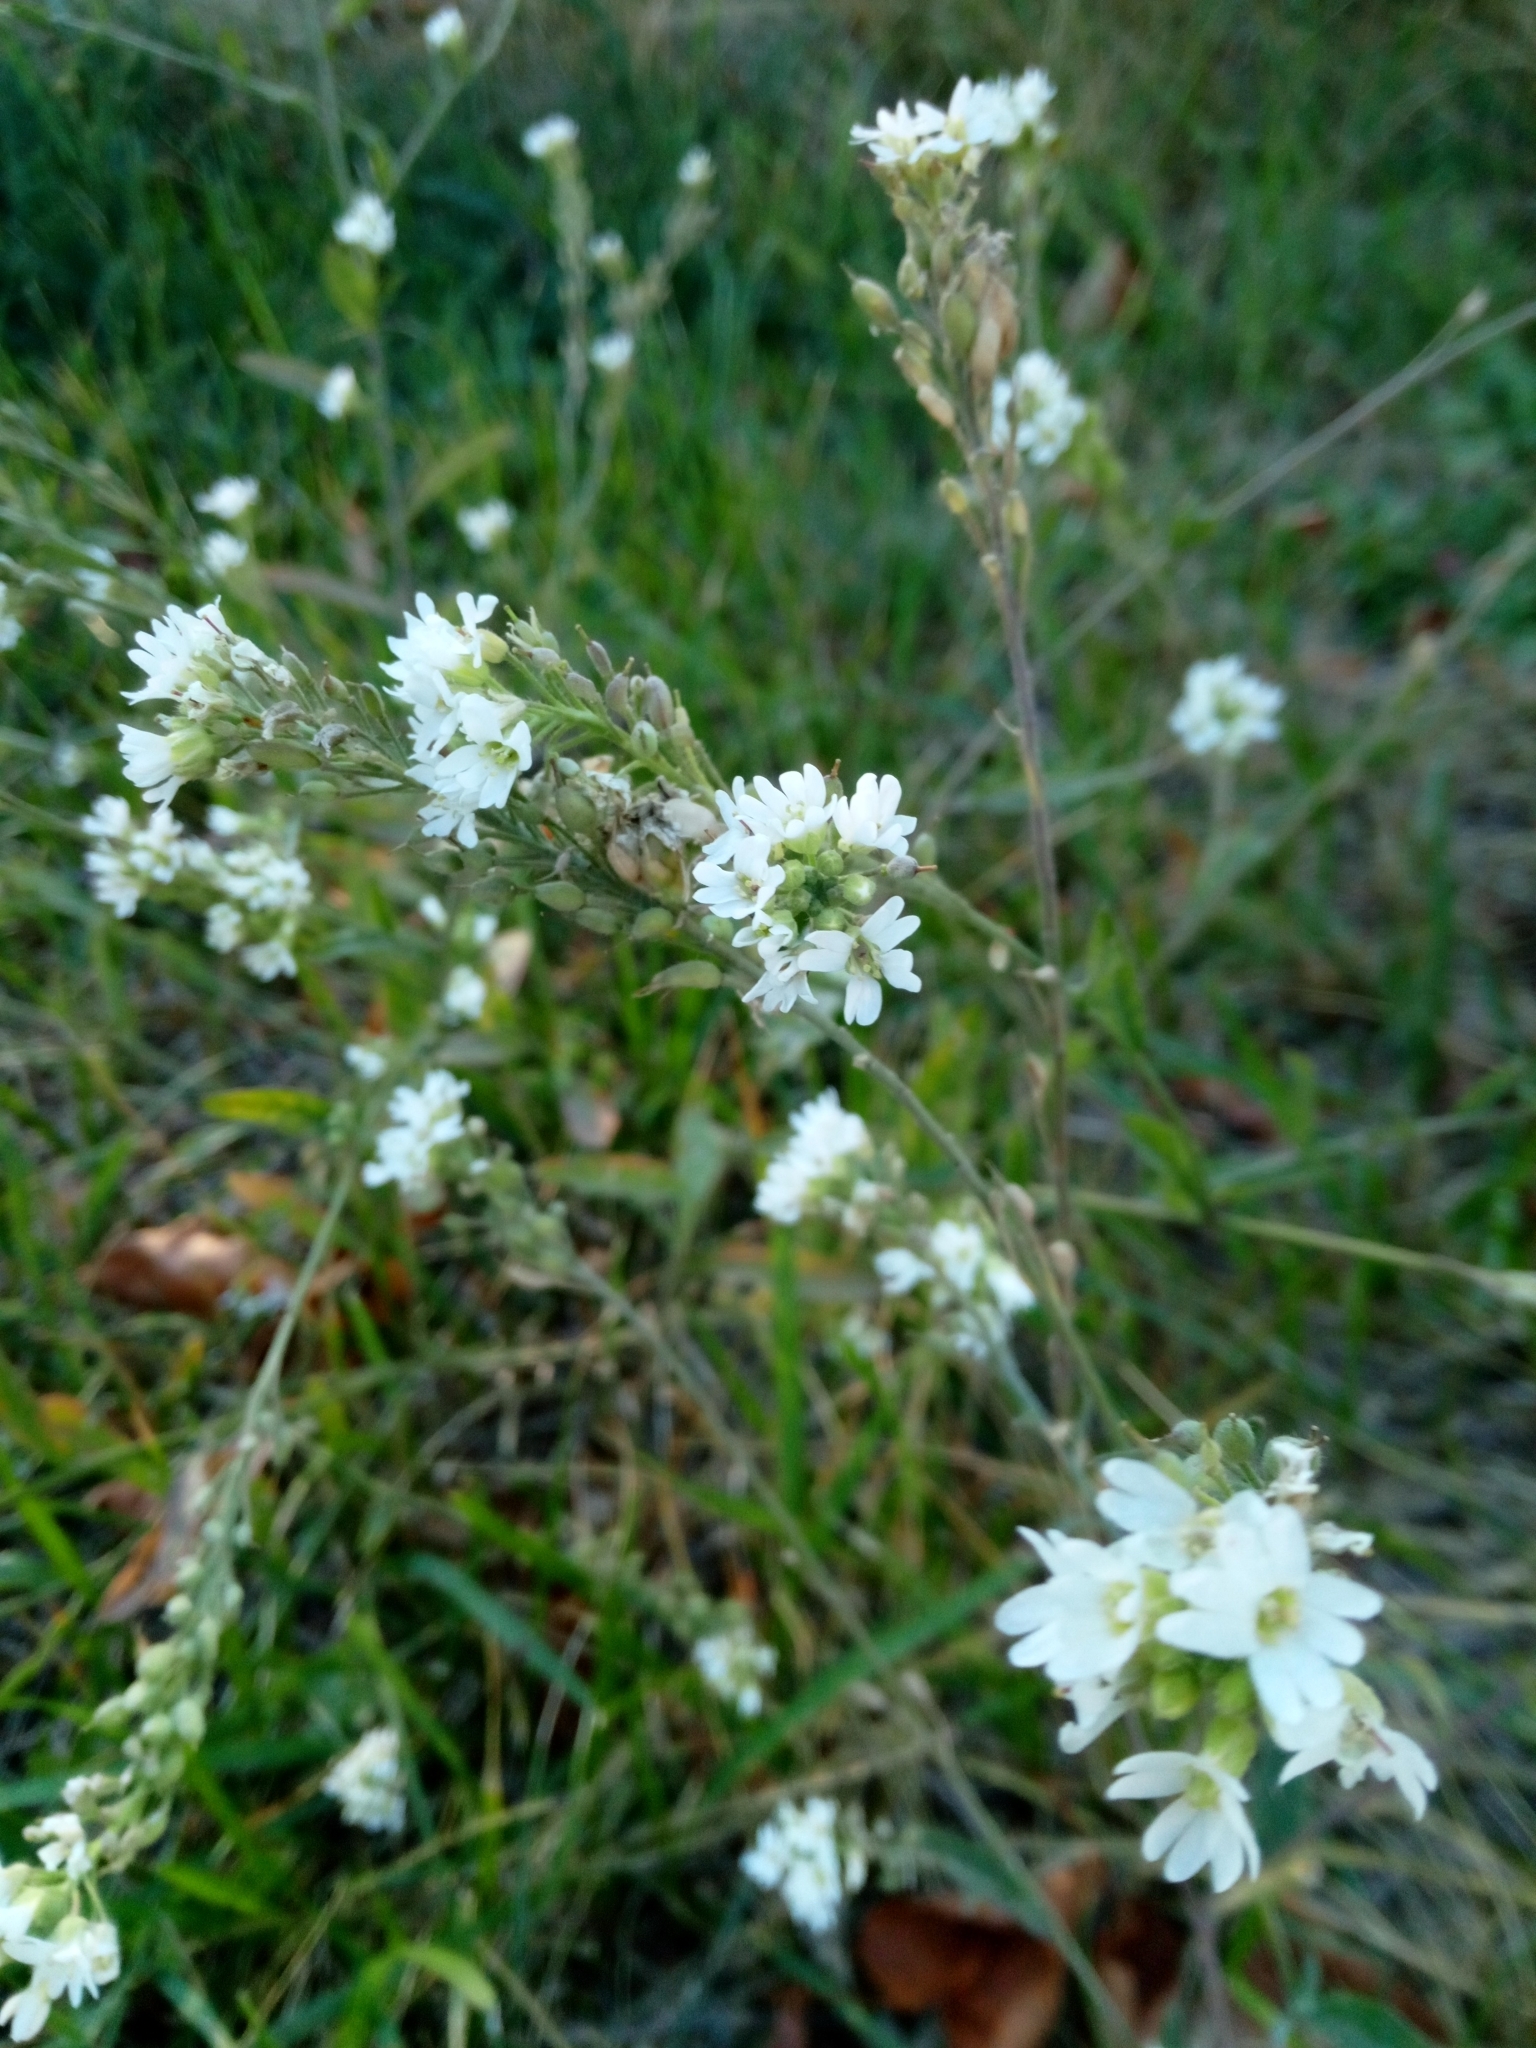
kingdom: Plantae
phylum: Tracheophyta
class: Magnoliopsida
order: Brassicales
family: Brassicaceae
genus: Berteroa
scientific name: Berteroa incana
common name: Hoary alison
